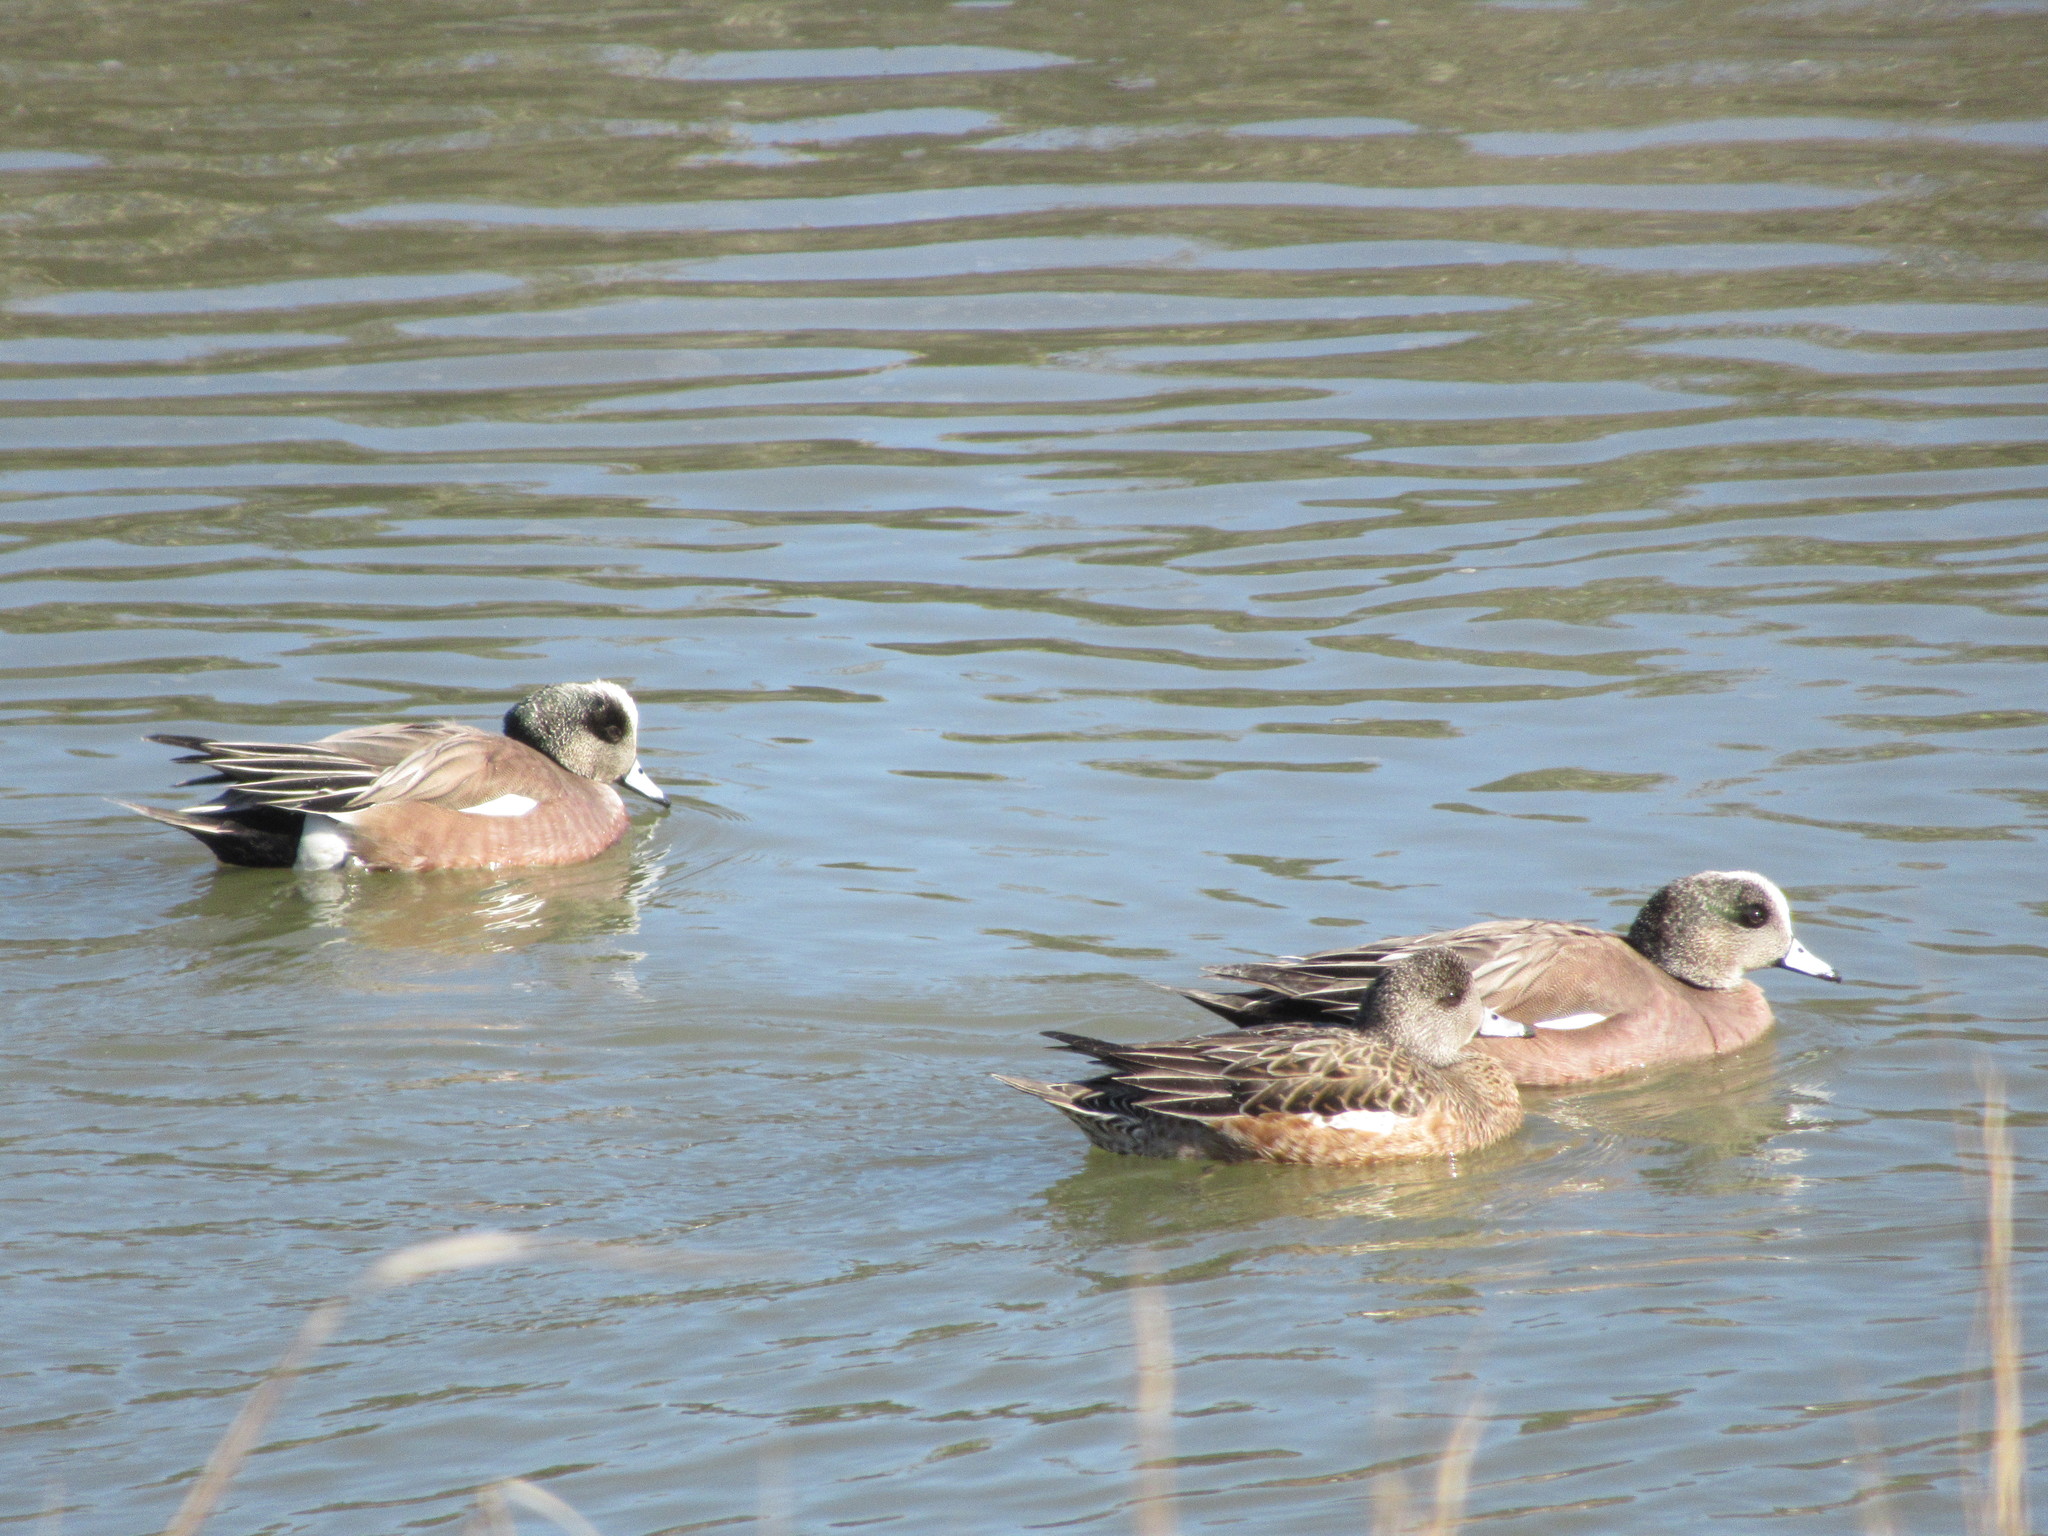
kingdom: Animalia
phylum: Chordata
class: Aves
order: Anseriformes
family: Anatidae
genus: Mareca
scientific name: Mareca americana
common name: American wigeon
